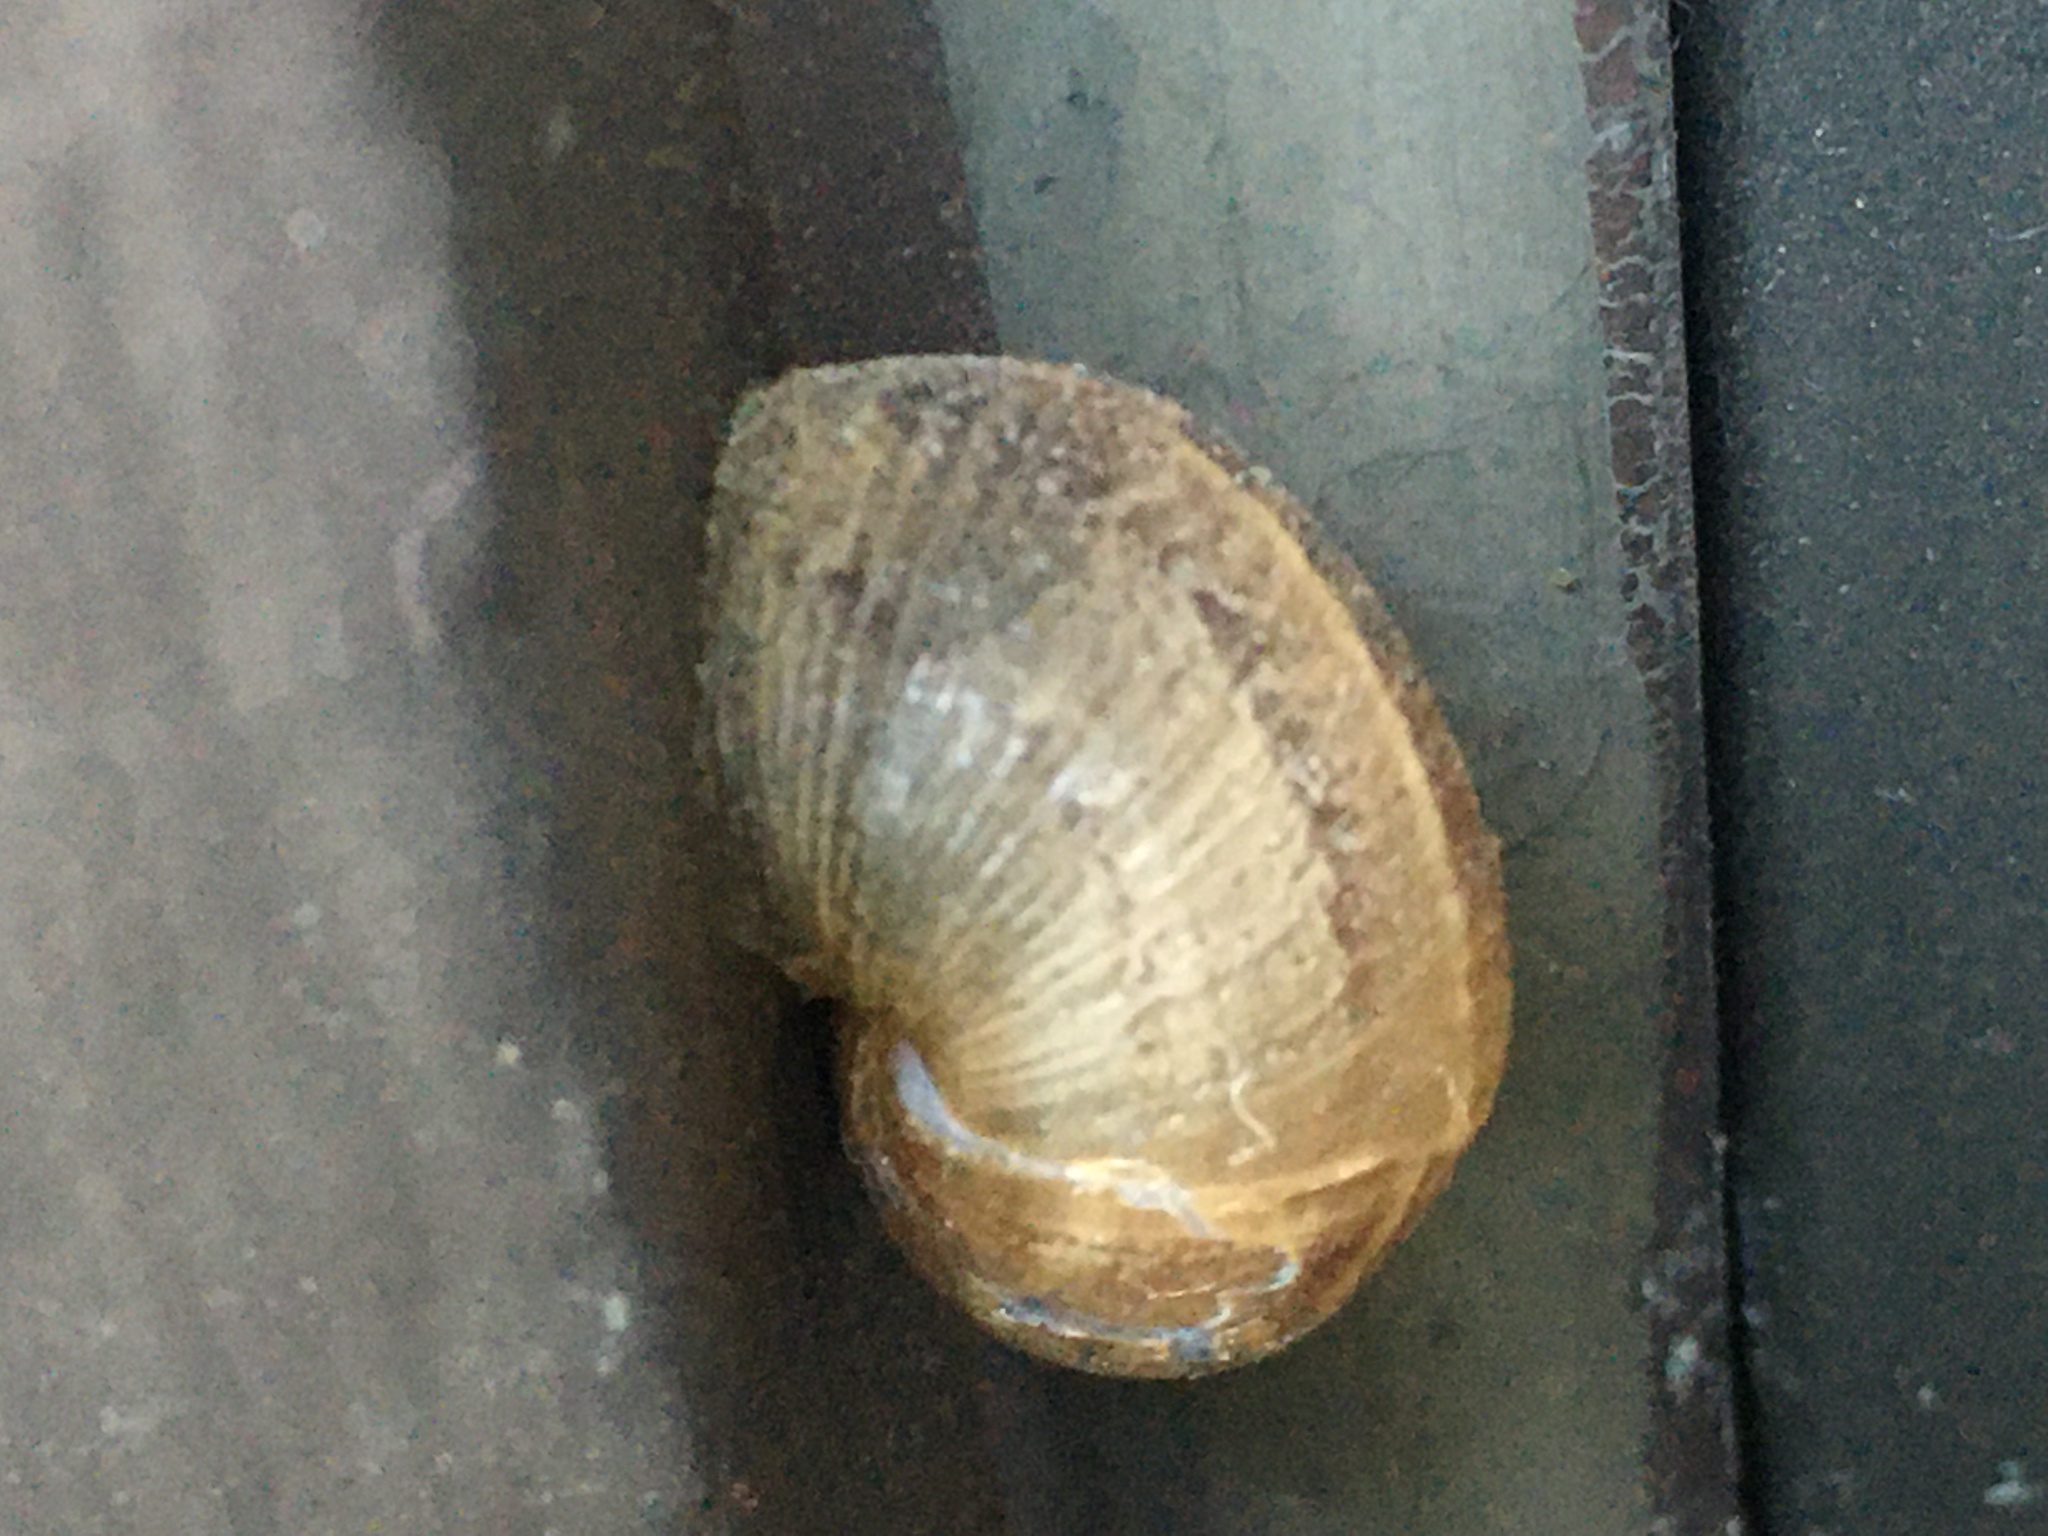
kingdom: Animalia
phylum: Mollusca
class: Gastropoda
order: Stylommatophora
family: Helicidae
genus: Cornu
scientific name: Cornu aspersum
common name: Brown garden snail
